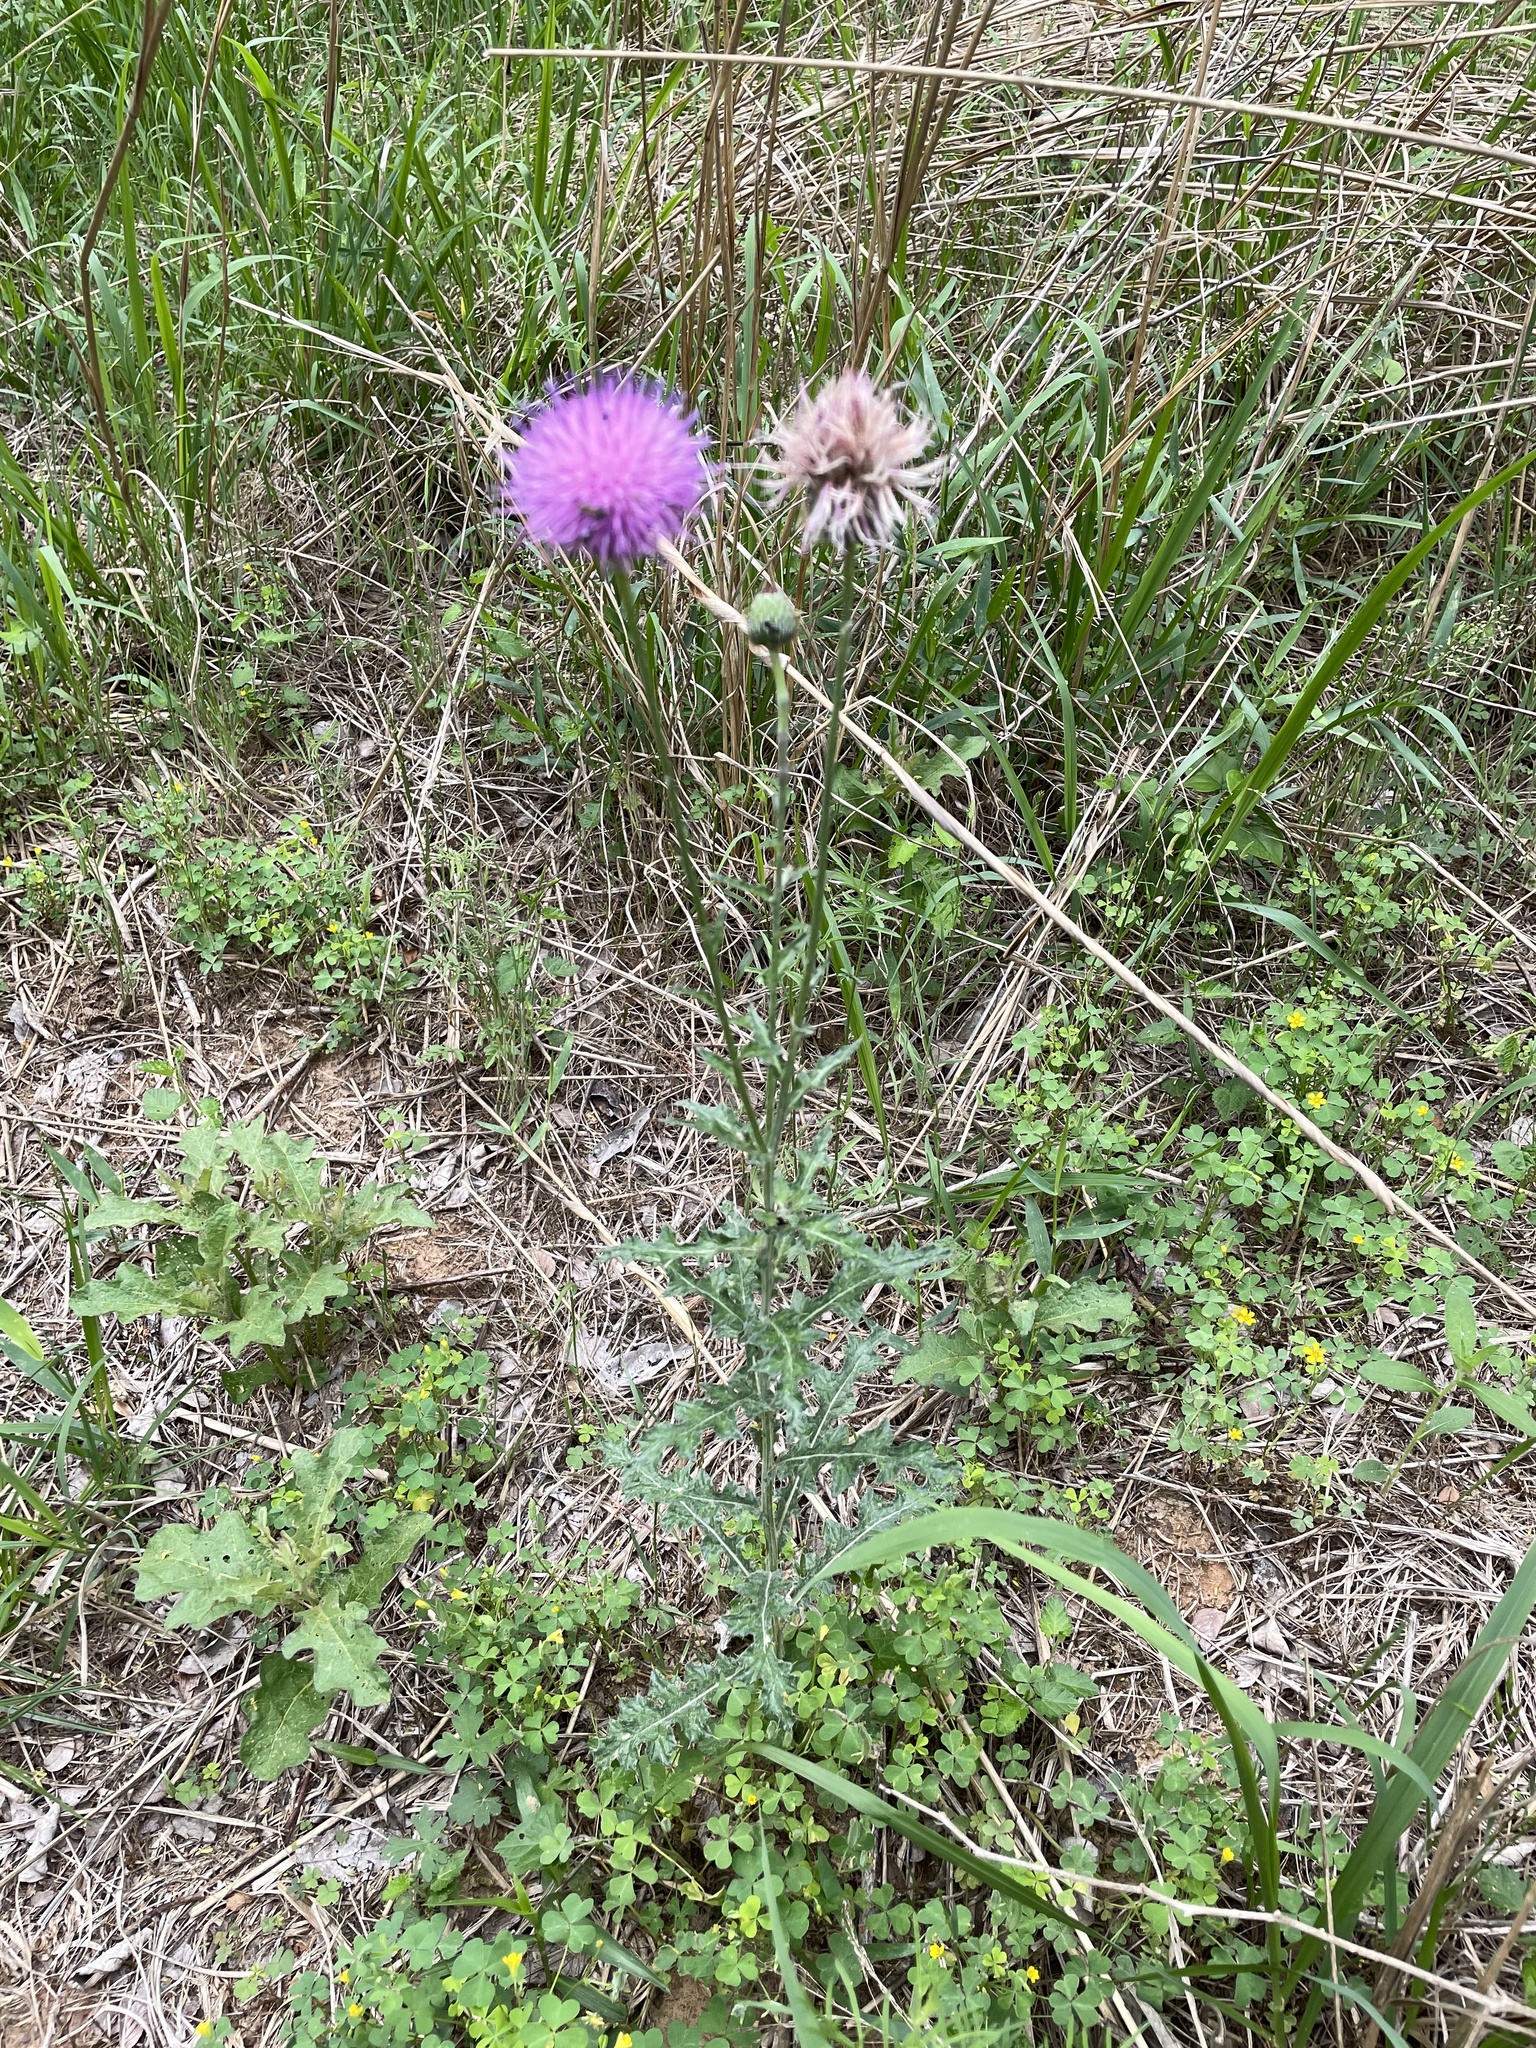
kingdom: Plantae
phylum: Tracheophyta
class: Magnoliopsida
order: Asterales
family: Asteraceae
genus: Cirsium
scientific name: Cirsium texanum
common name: Texas purple thistle
